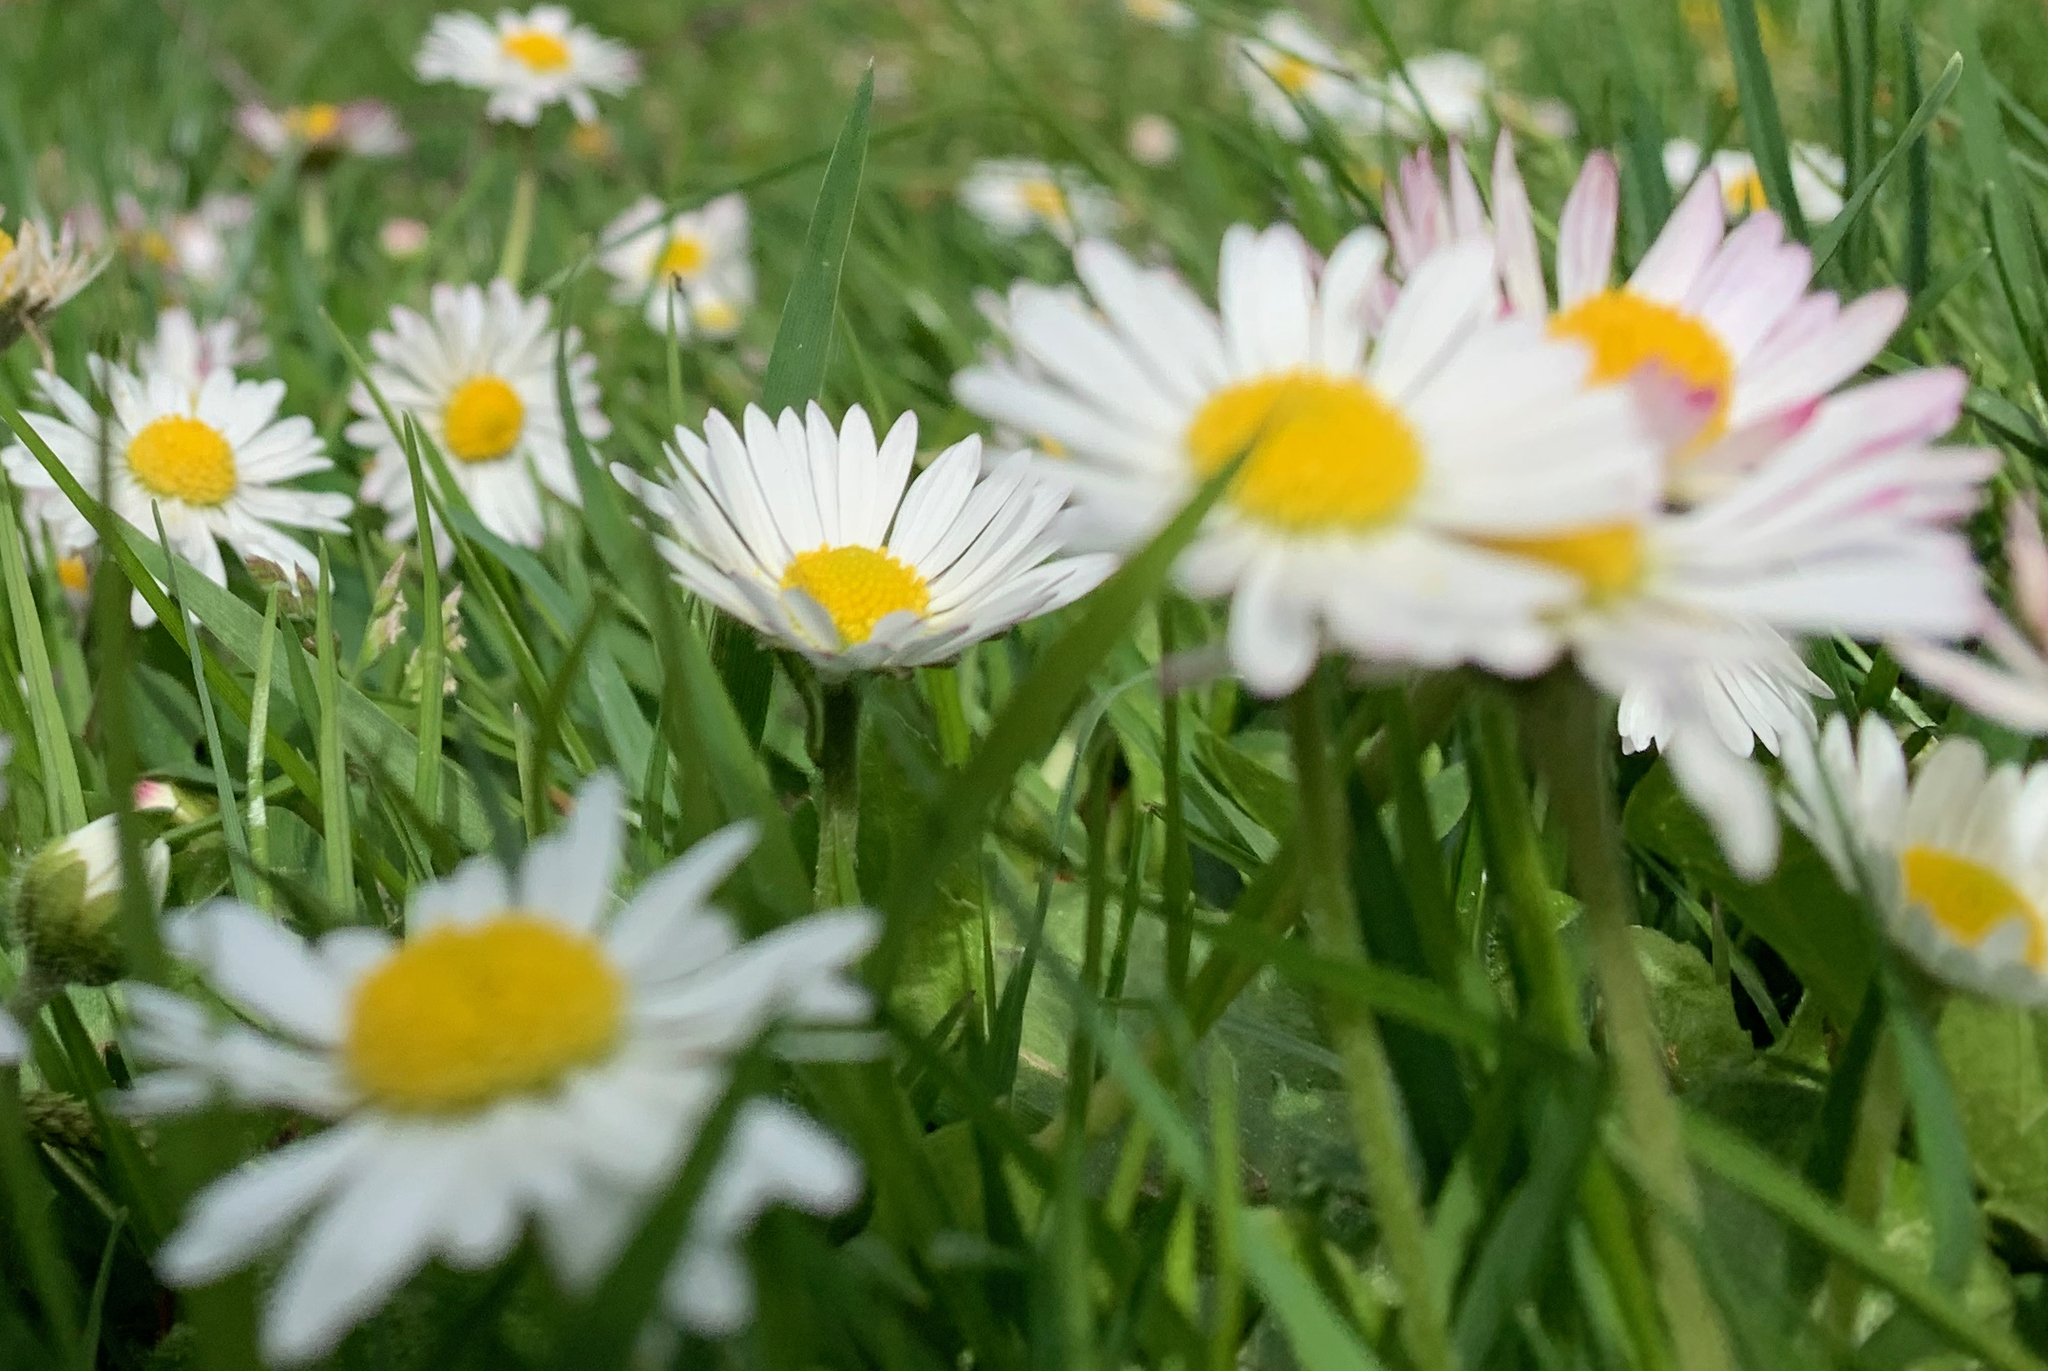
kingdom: Plantae
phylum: Tracheophyta
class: Magnoliopsida
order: Asterales
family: Asteraceae
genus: Bellis
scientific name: Bellis perennis
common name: Lawndaisy
